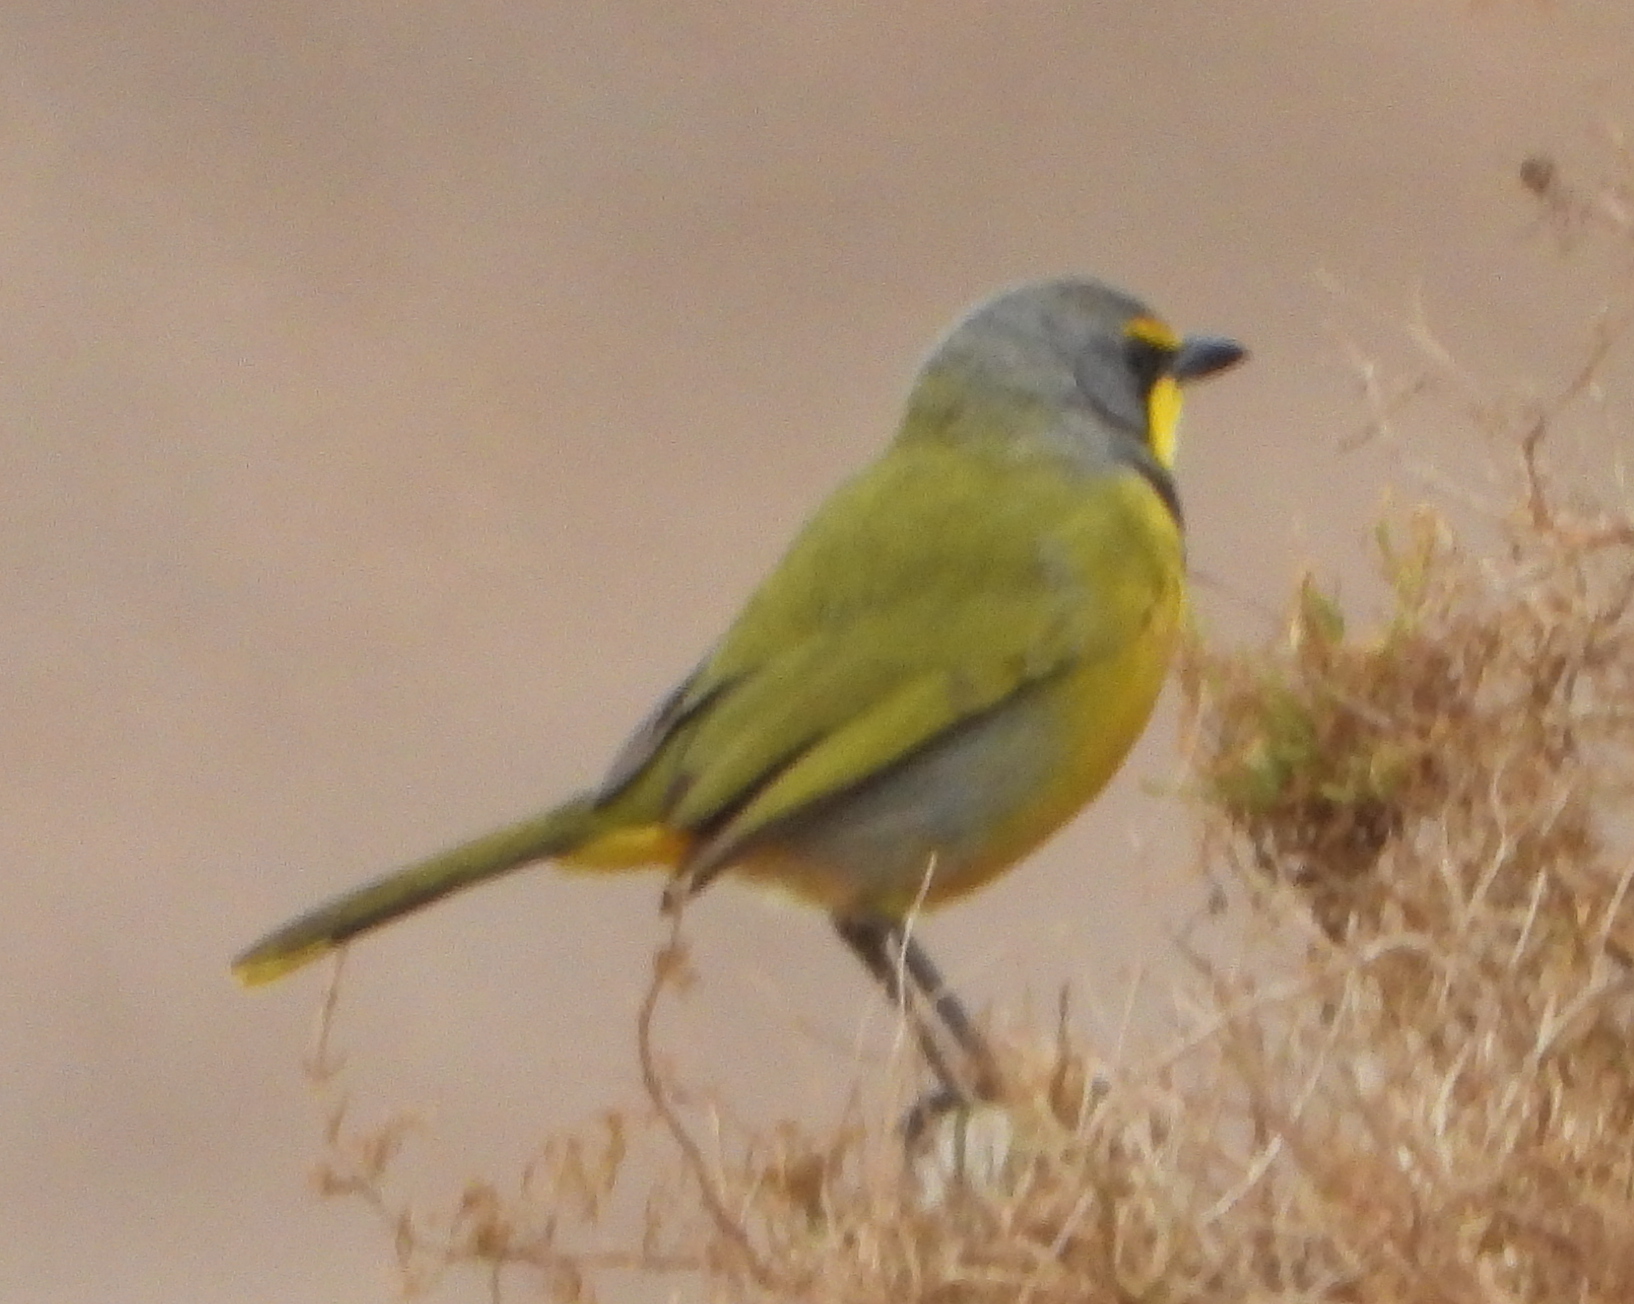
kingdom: Animalia
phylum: Chordata
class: Aves
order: Passeriformes
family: Malaconotidae
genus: Telophorus
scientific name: Telophorus zeylonus
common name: Bokmakierie
